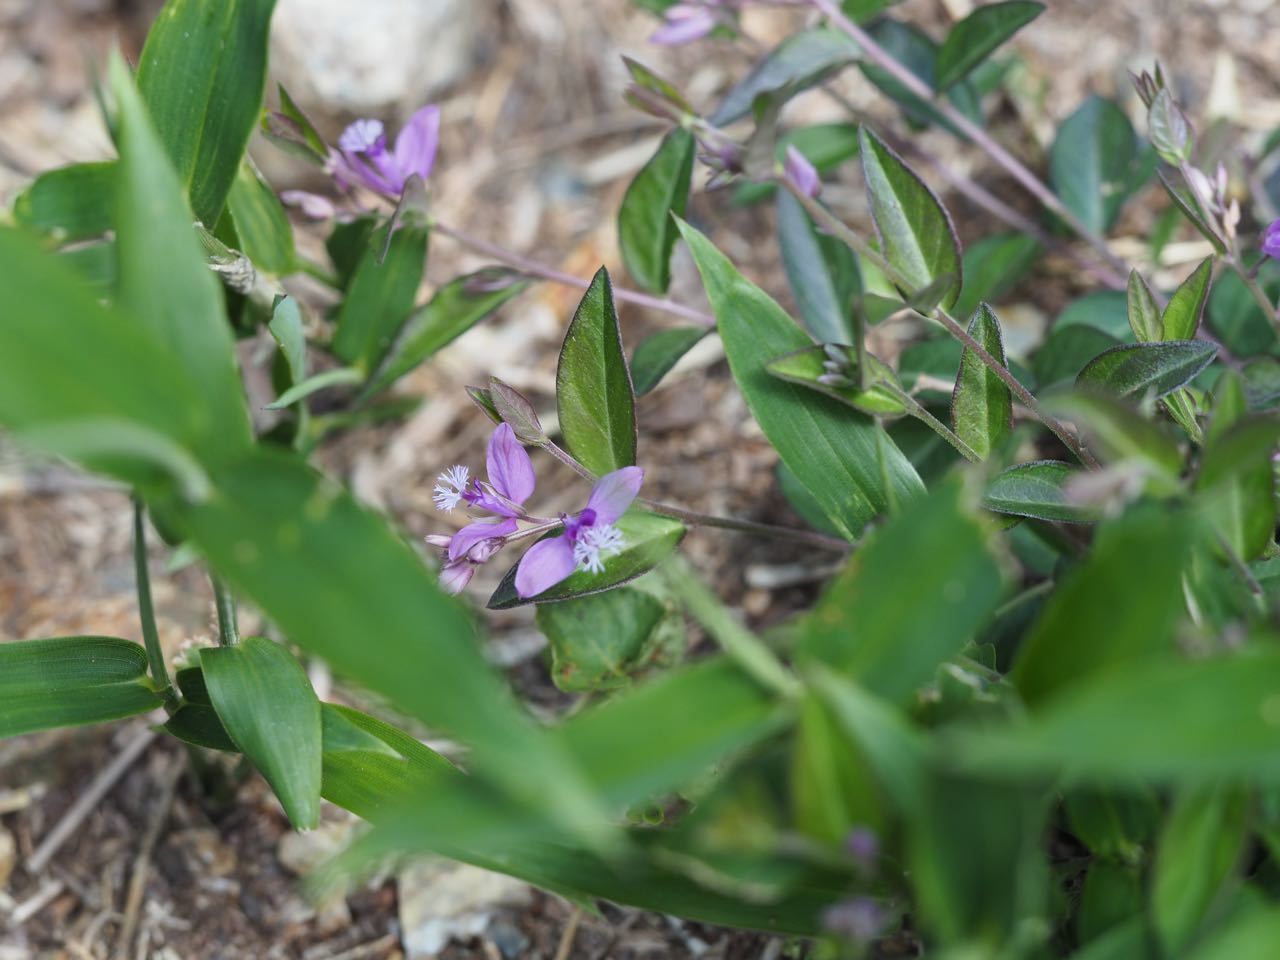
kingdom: Plantae
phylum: Tracheophyta
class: Magnoliopsida
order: Fabales
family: Polygalaceae
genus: Polygala
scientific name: Polygala japonica
